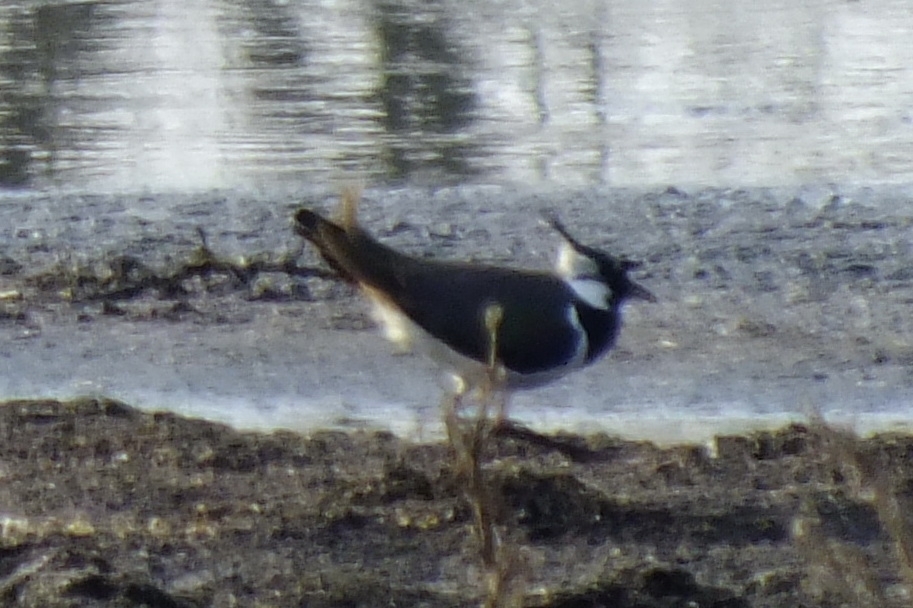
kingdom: Animalia
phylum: Chordata
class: Aves
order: Charadriiformes
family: Charadriidae
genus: Vanellus
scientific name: Vanellus vanellus
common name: Northern lapwing
